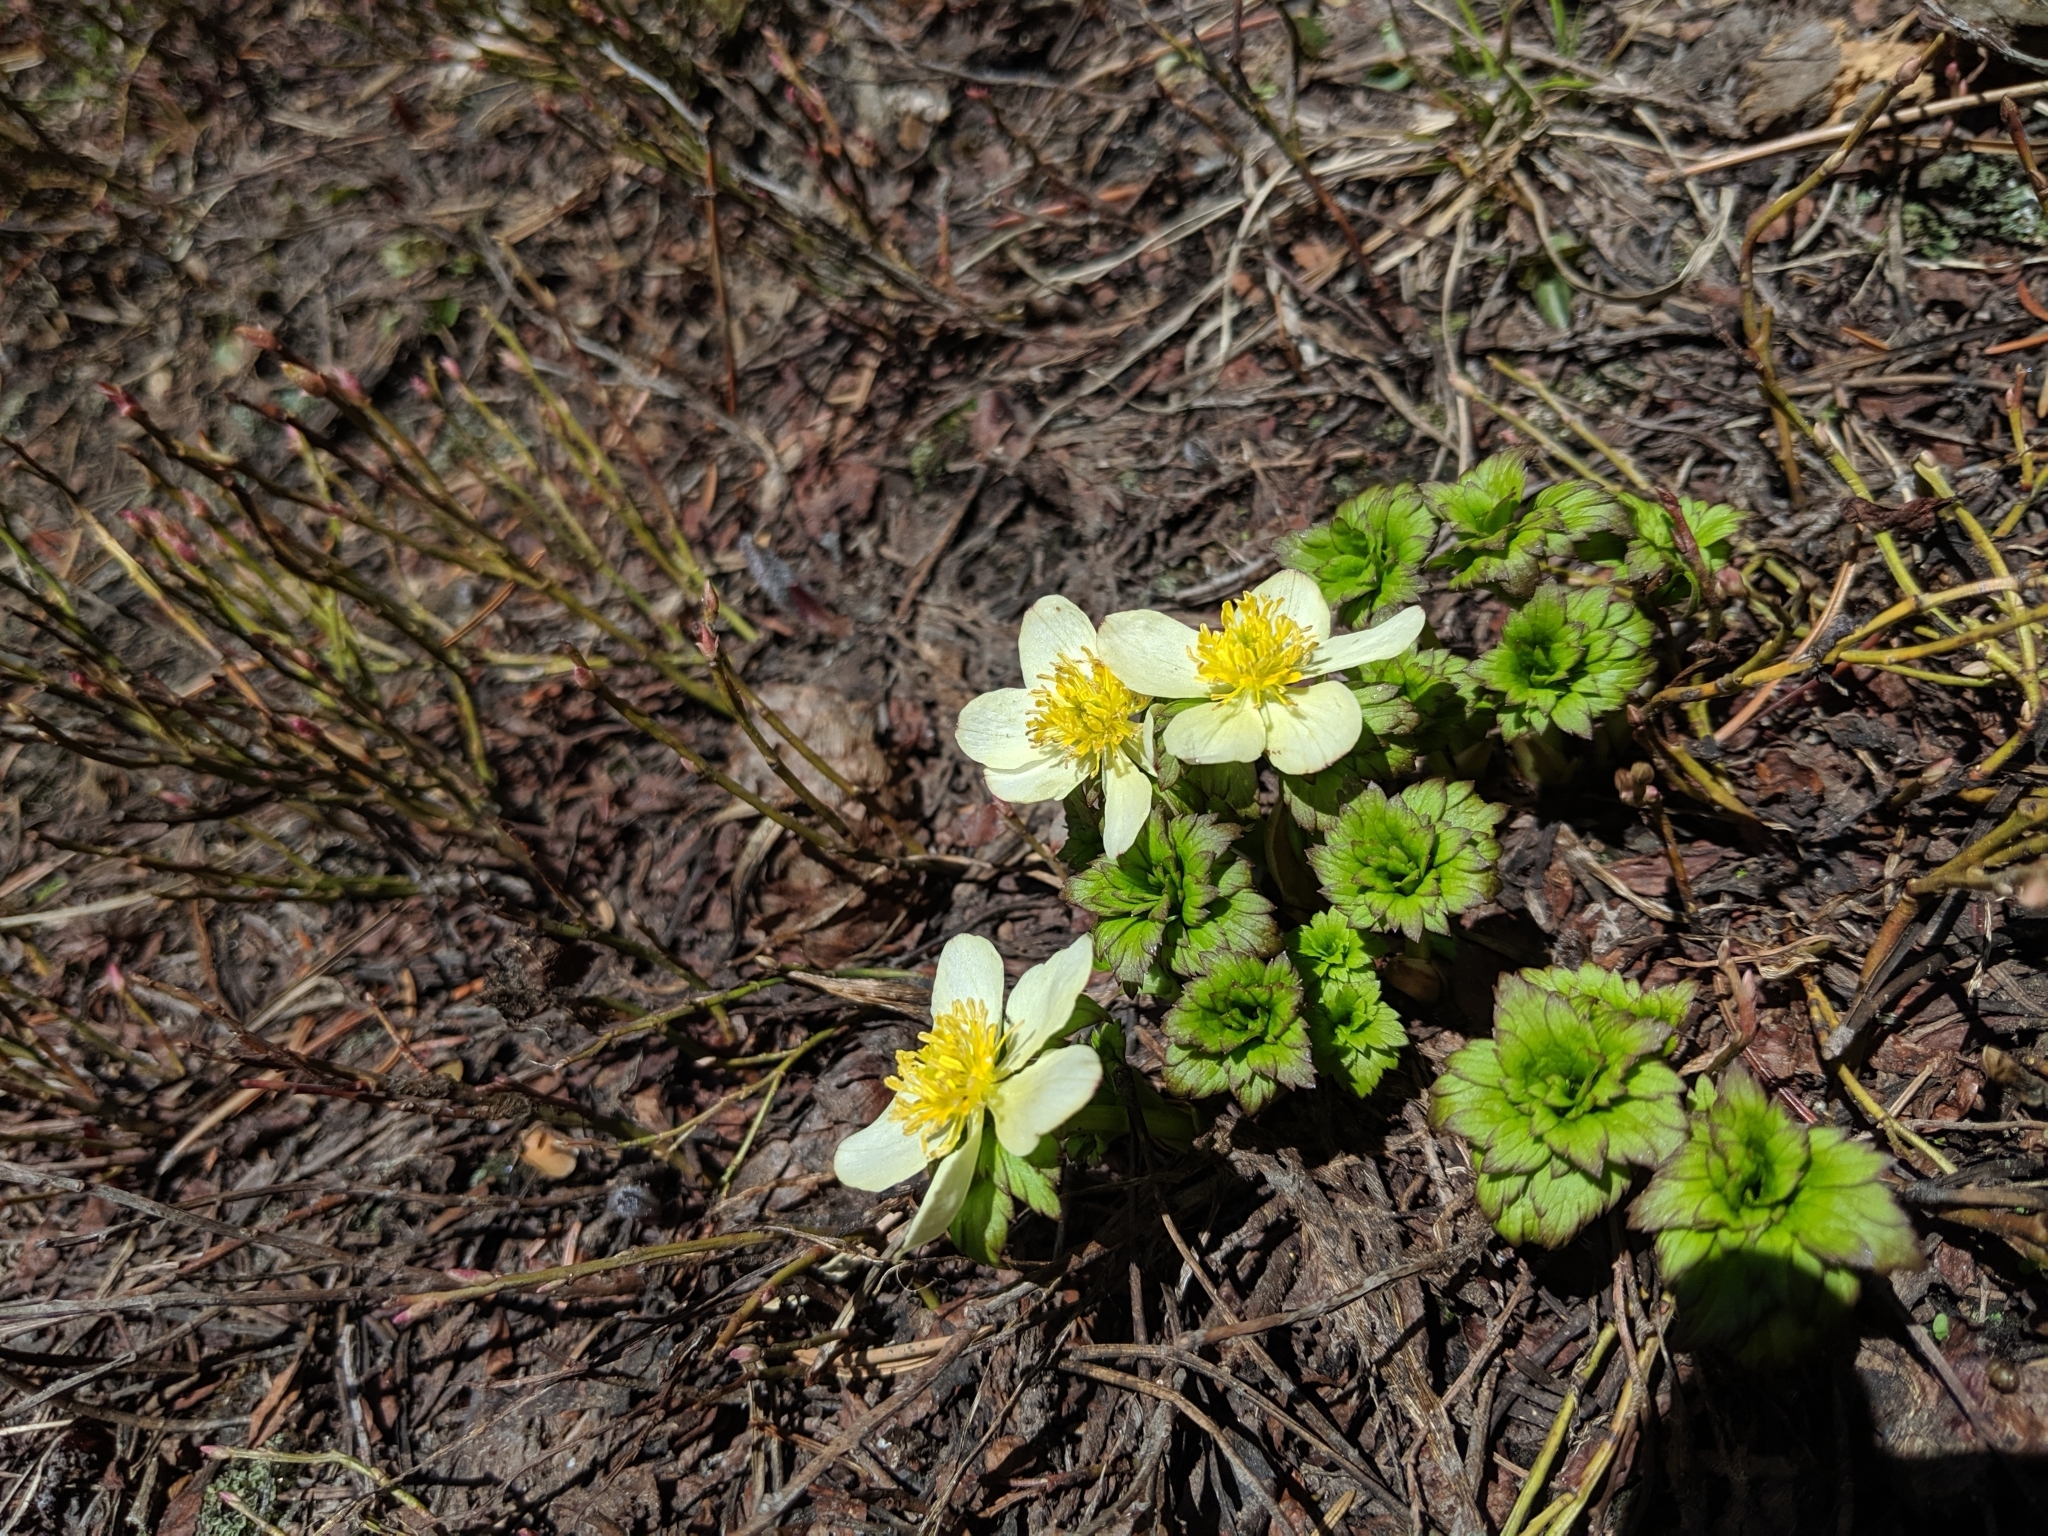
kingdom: Plantae
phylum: Tracheophyta
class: Magnoliopsida
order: Ranunculales
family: Ranunculaceae
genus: Trollius
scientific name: Trollius laxus
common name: American globeflower
